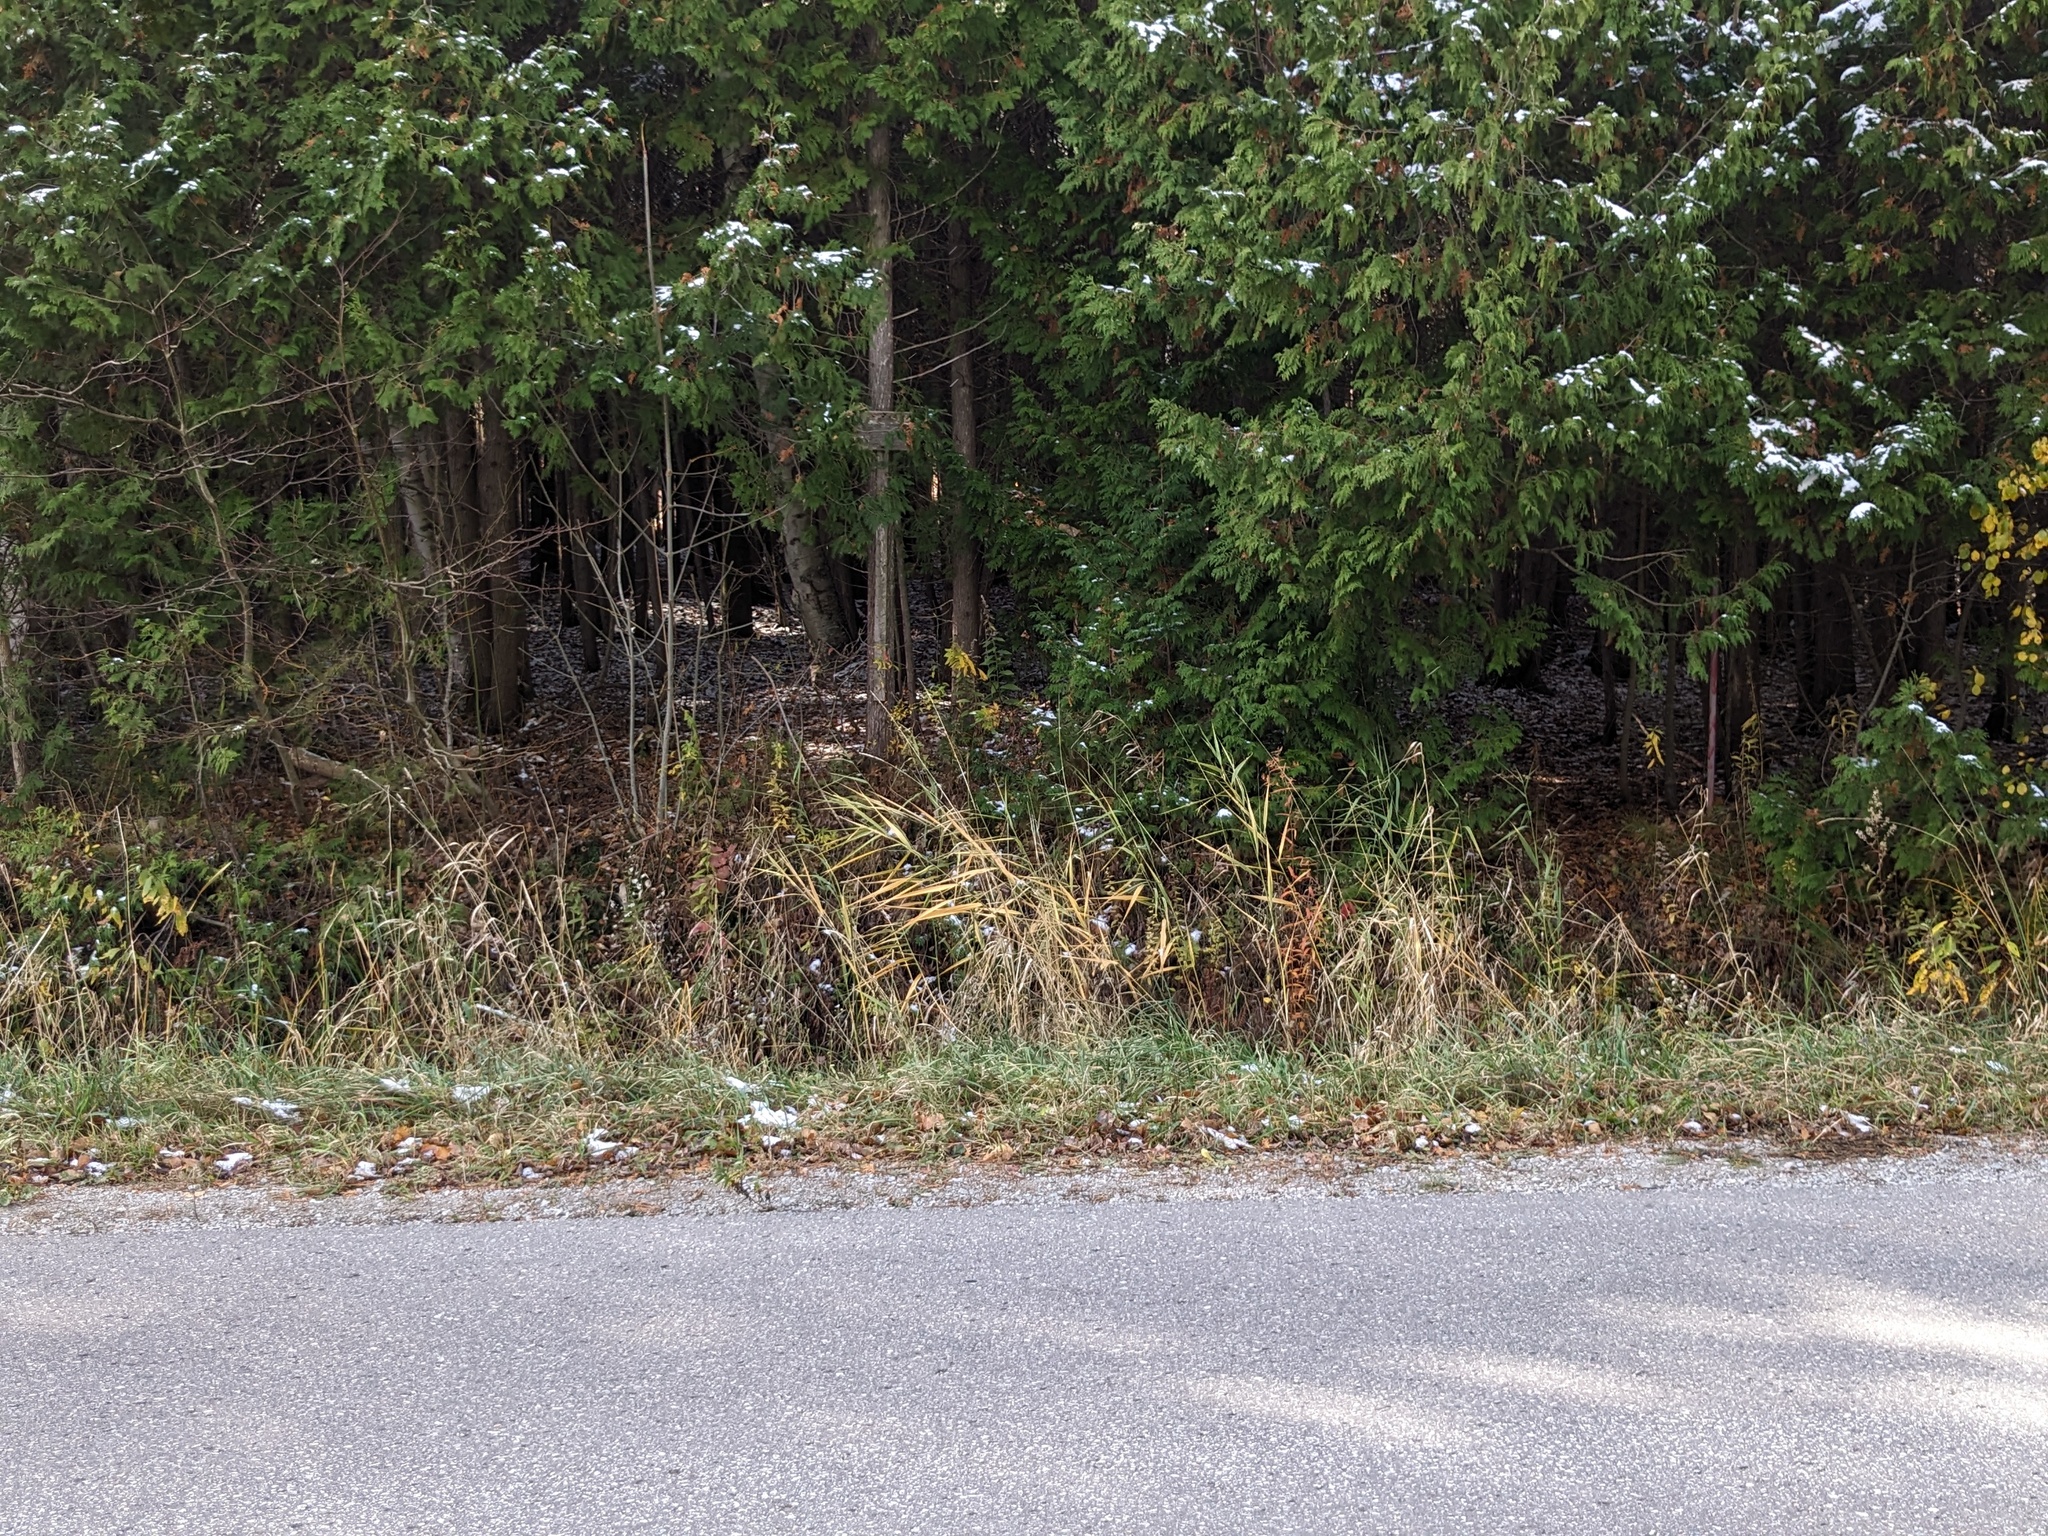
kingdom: Plantae
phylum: Tracheophyta
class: Liliopsida
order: Poales
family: Poaceae
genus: Phragmites
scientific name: Phragmites australis
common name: Common reed
